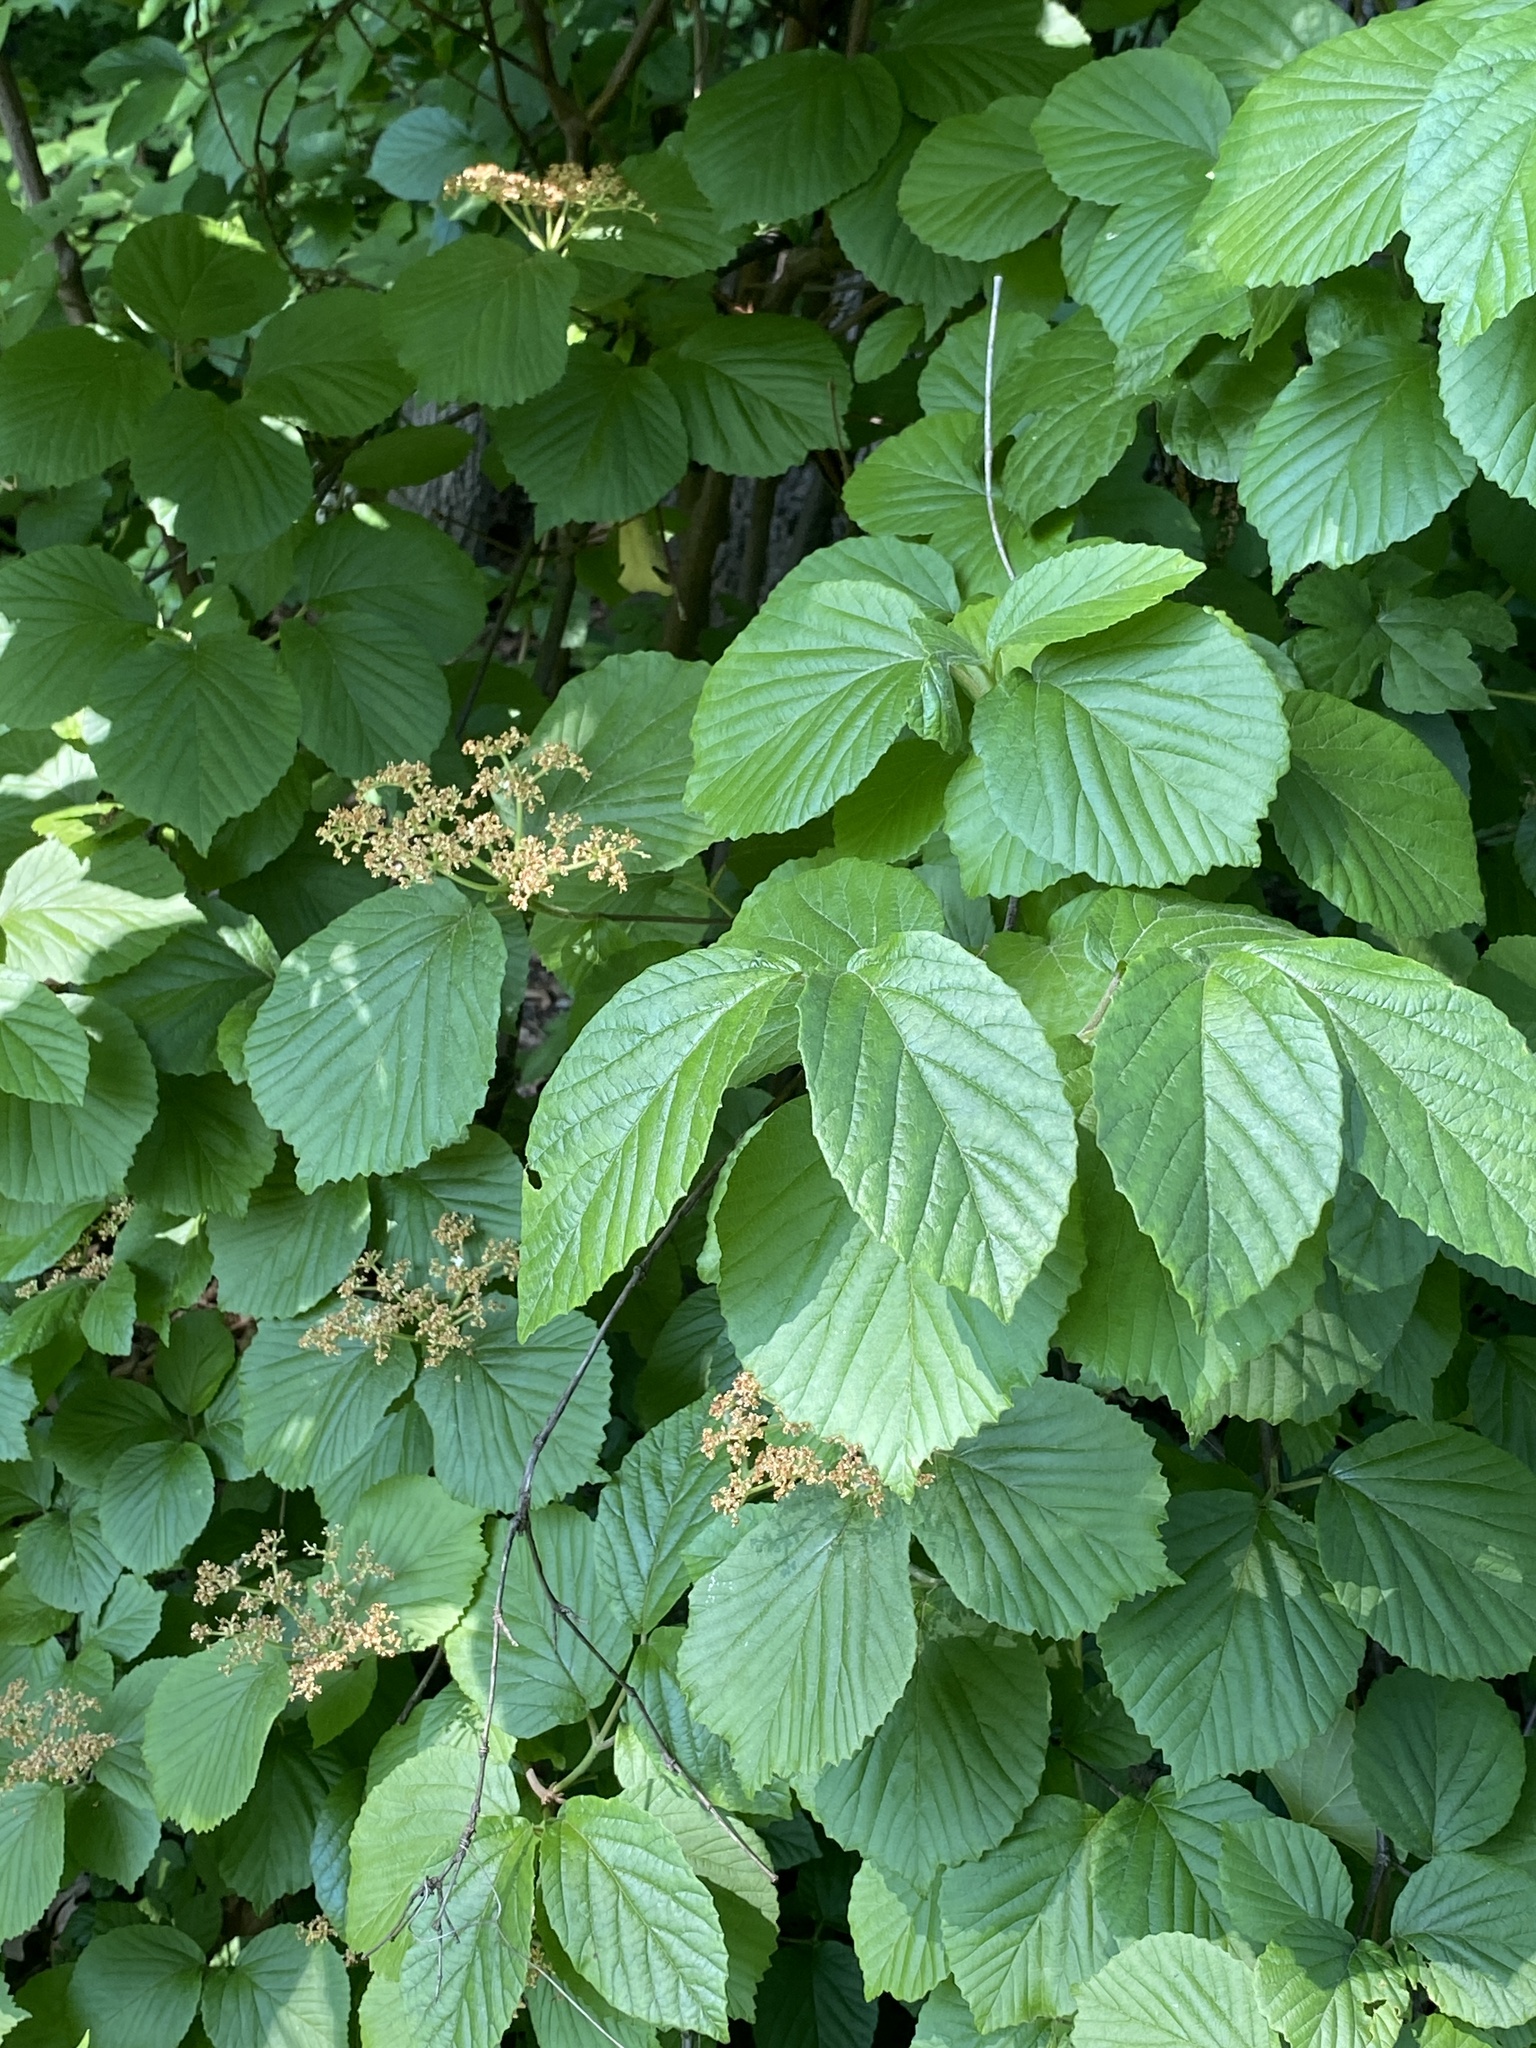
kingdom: Plantae
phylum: Tracheophyta
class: Magnoliopsida
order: Dipsacales
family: Viburnaceae
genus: Viburnum
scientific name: Viburnum dilatatum
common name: Linden arrowwood
